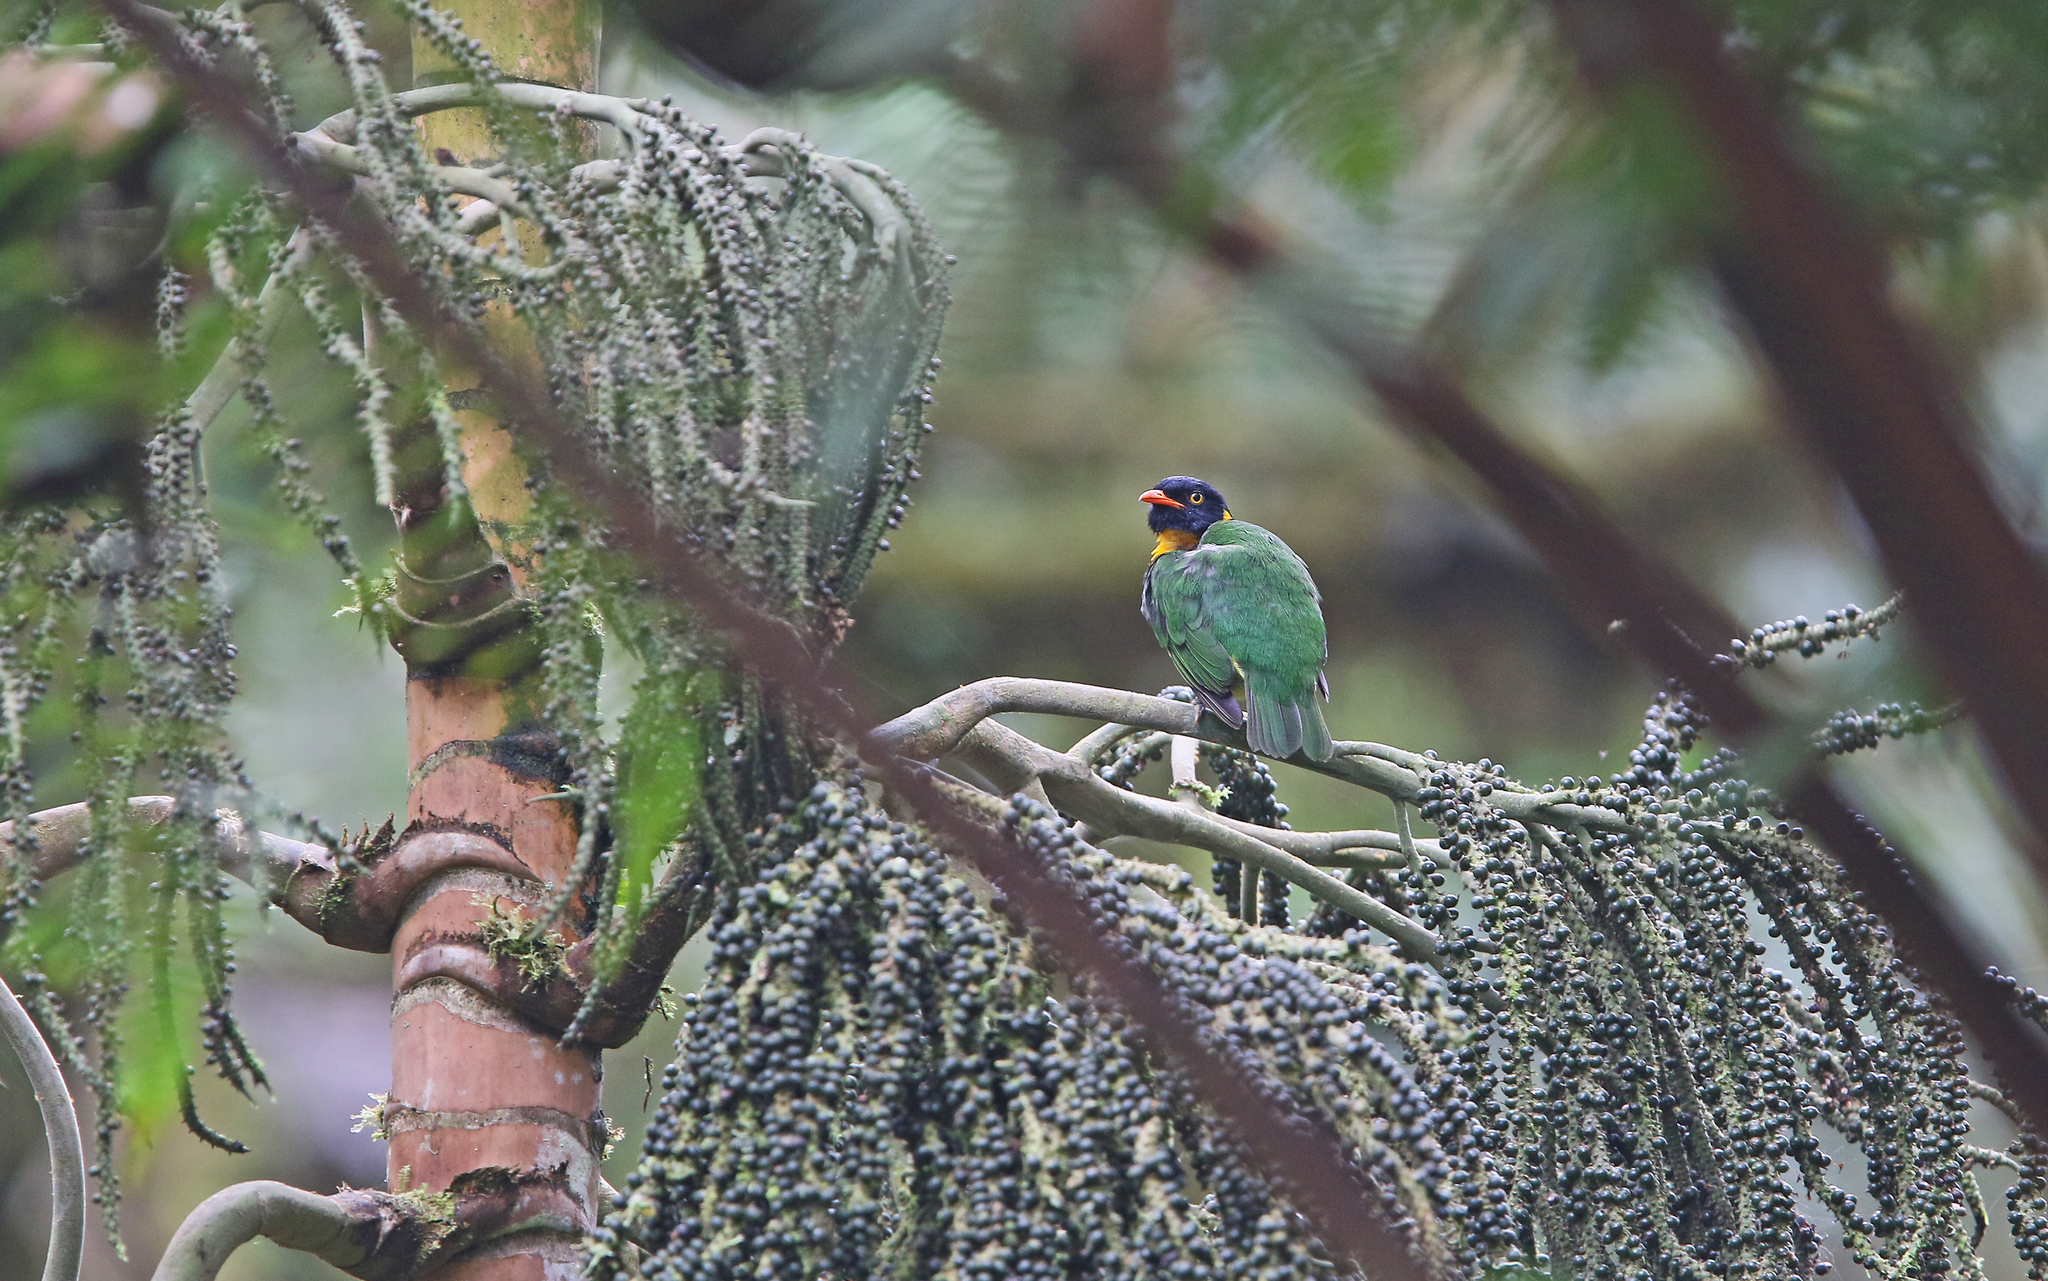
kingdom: Animalia
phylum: Chordata
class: Aves
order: Passeriformes
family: Cotingidae
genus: Pipreola
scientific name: Pipreola jucunda
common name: Orange-breasted fruiteater
